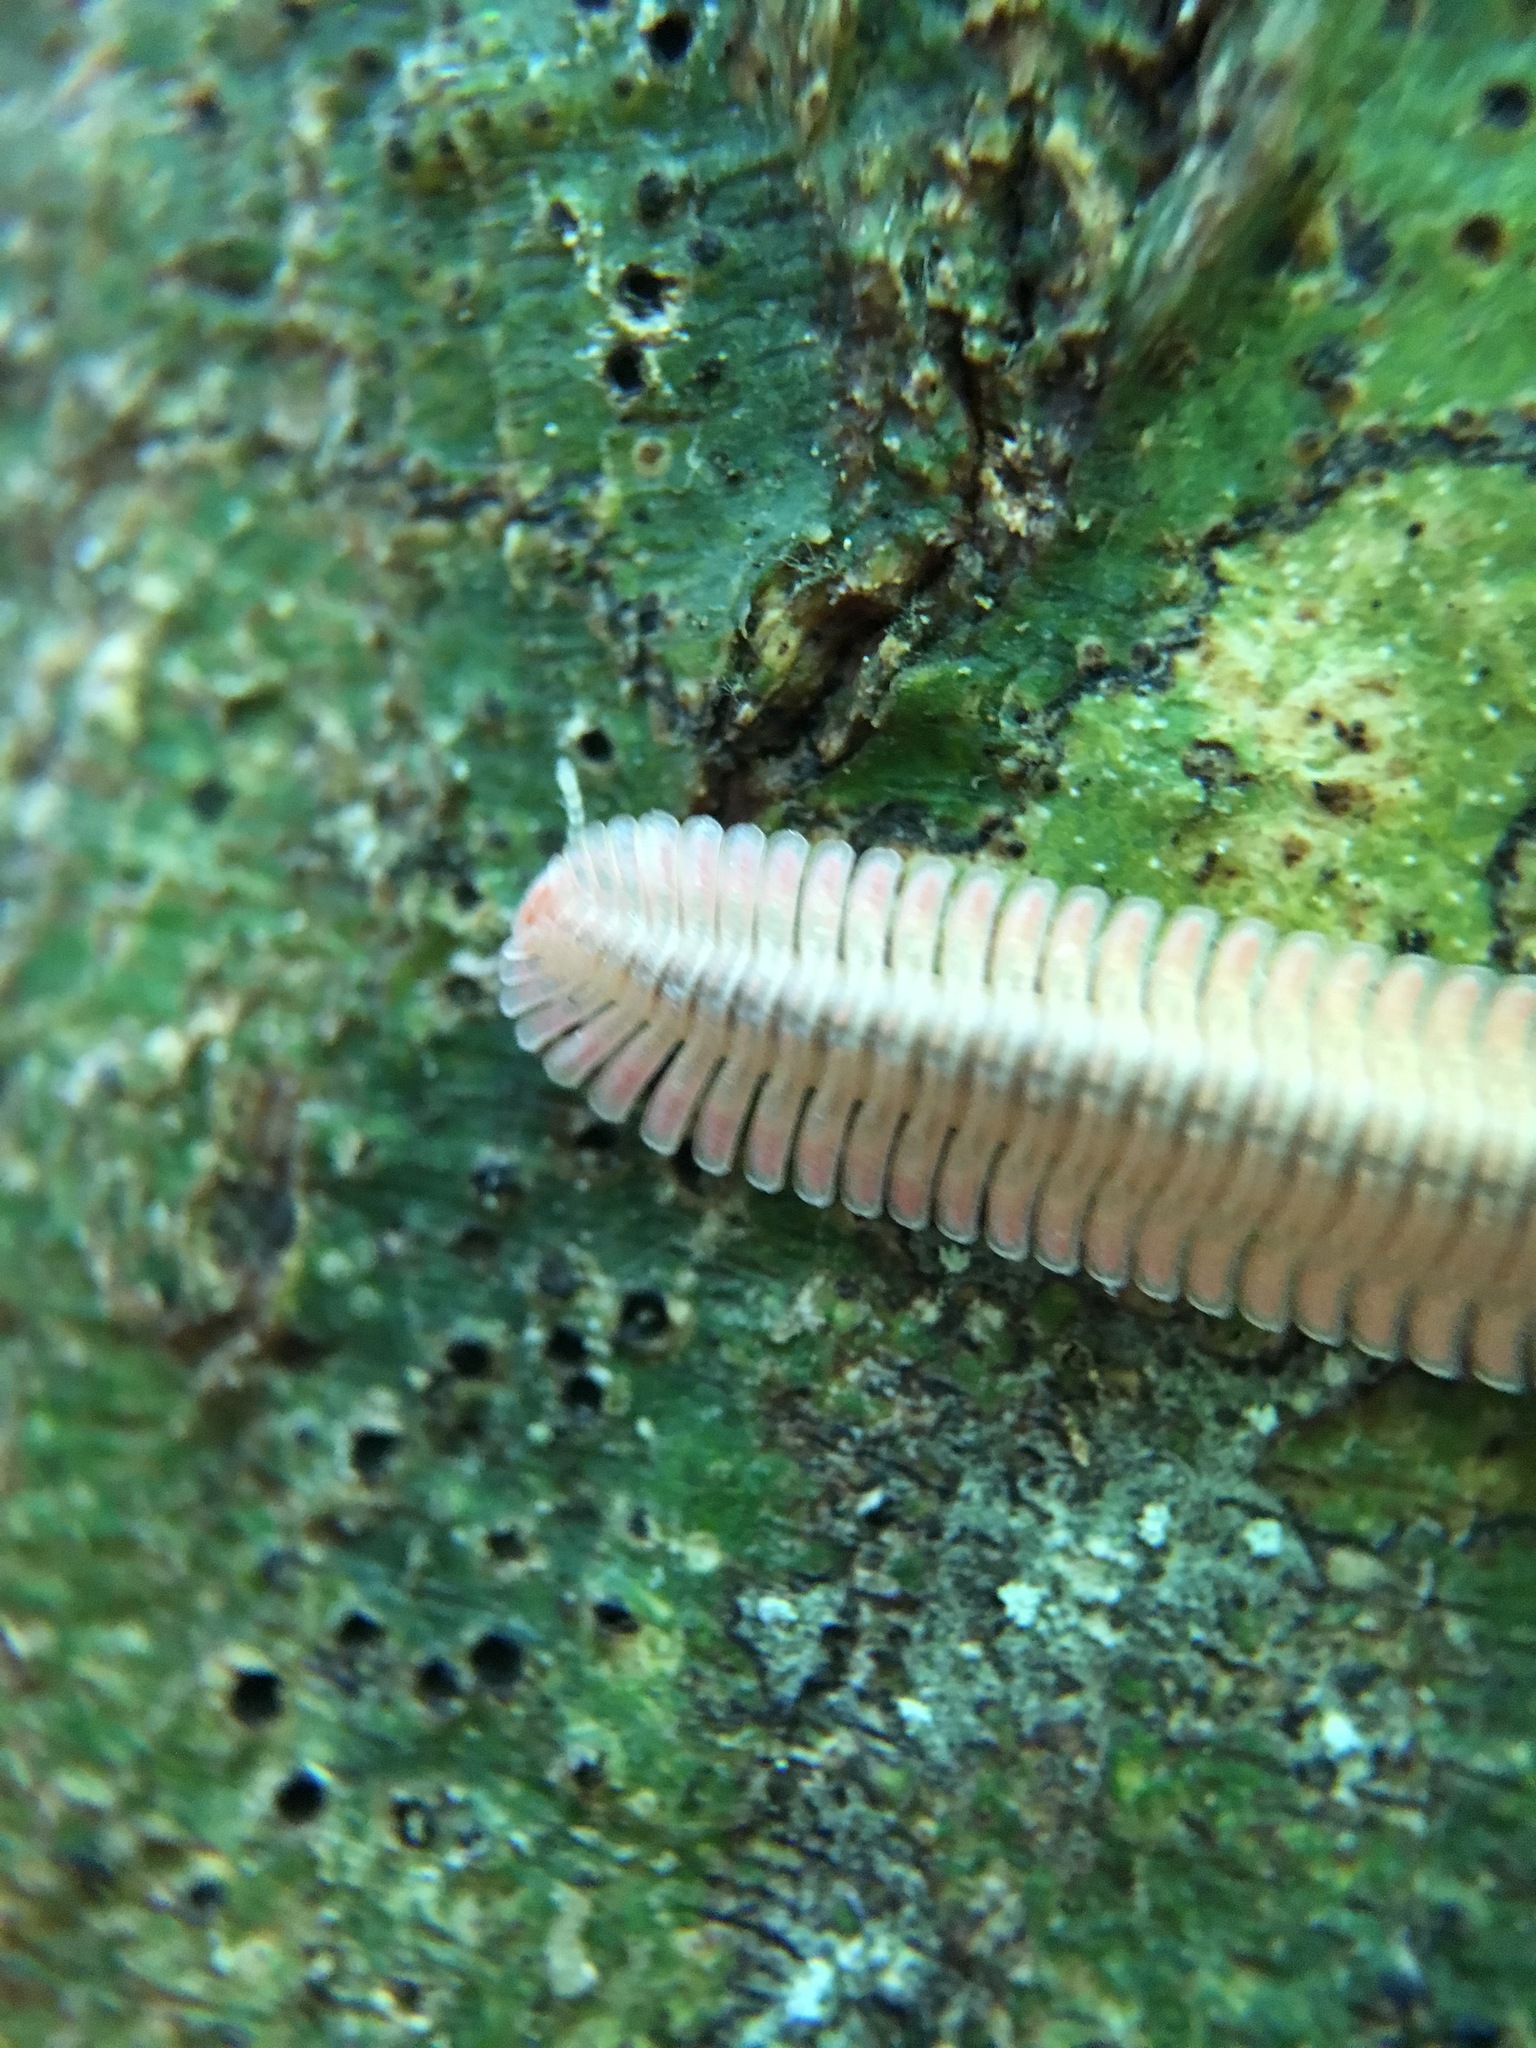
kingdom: Animalia
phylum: Arthropoda
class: Diplopoda
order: Platydesmida
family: Andrognathidae
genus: Brachycybe
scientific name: Brachycybe lecontii
